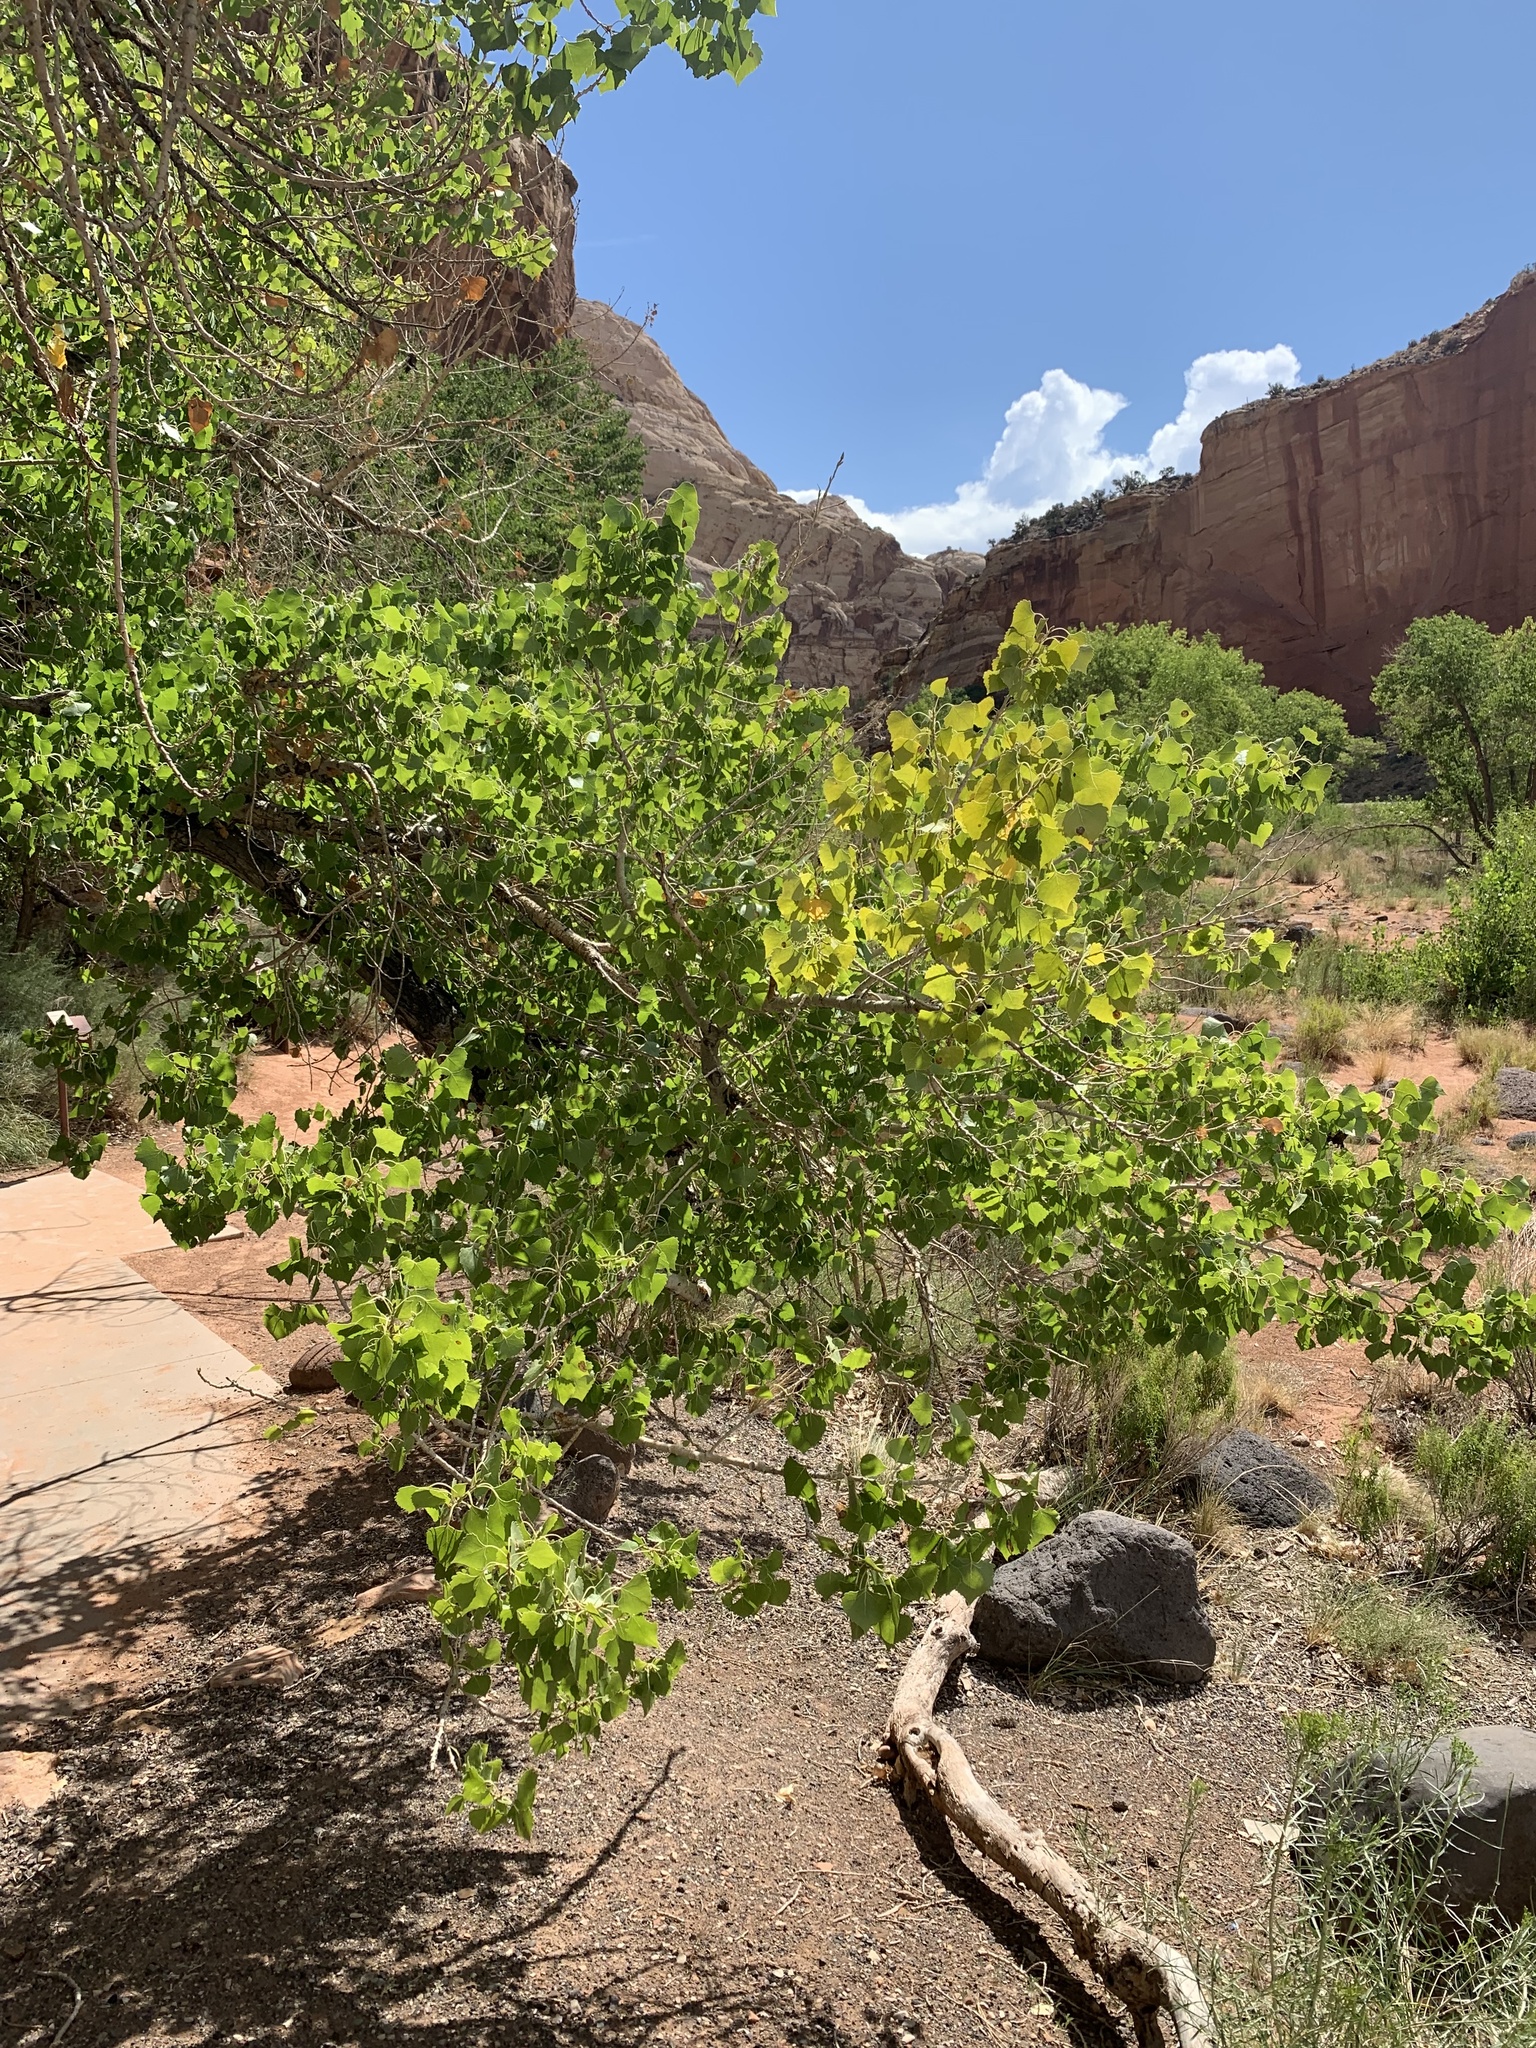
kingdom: Plantae
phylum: Tracheophyta
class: Magnoliopsida
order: Malpighiales
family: Salicaceae
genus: Populus
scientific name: Populus fremontii
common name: Fremont's cottonwood
